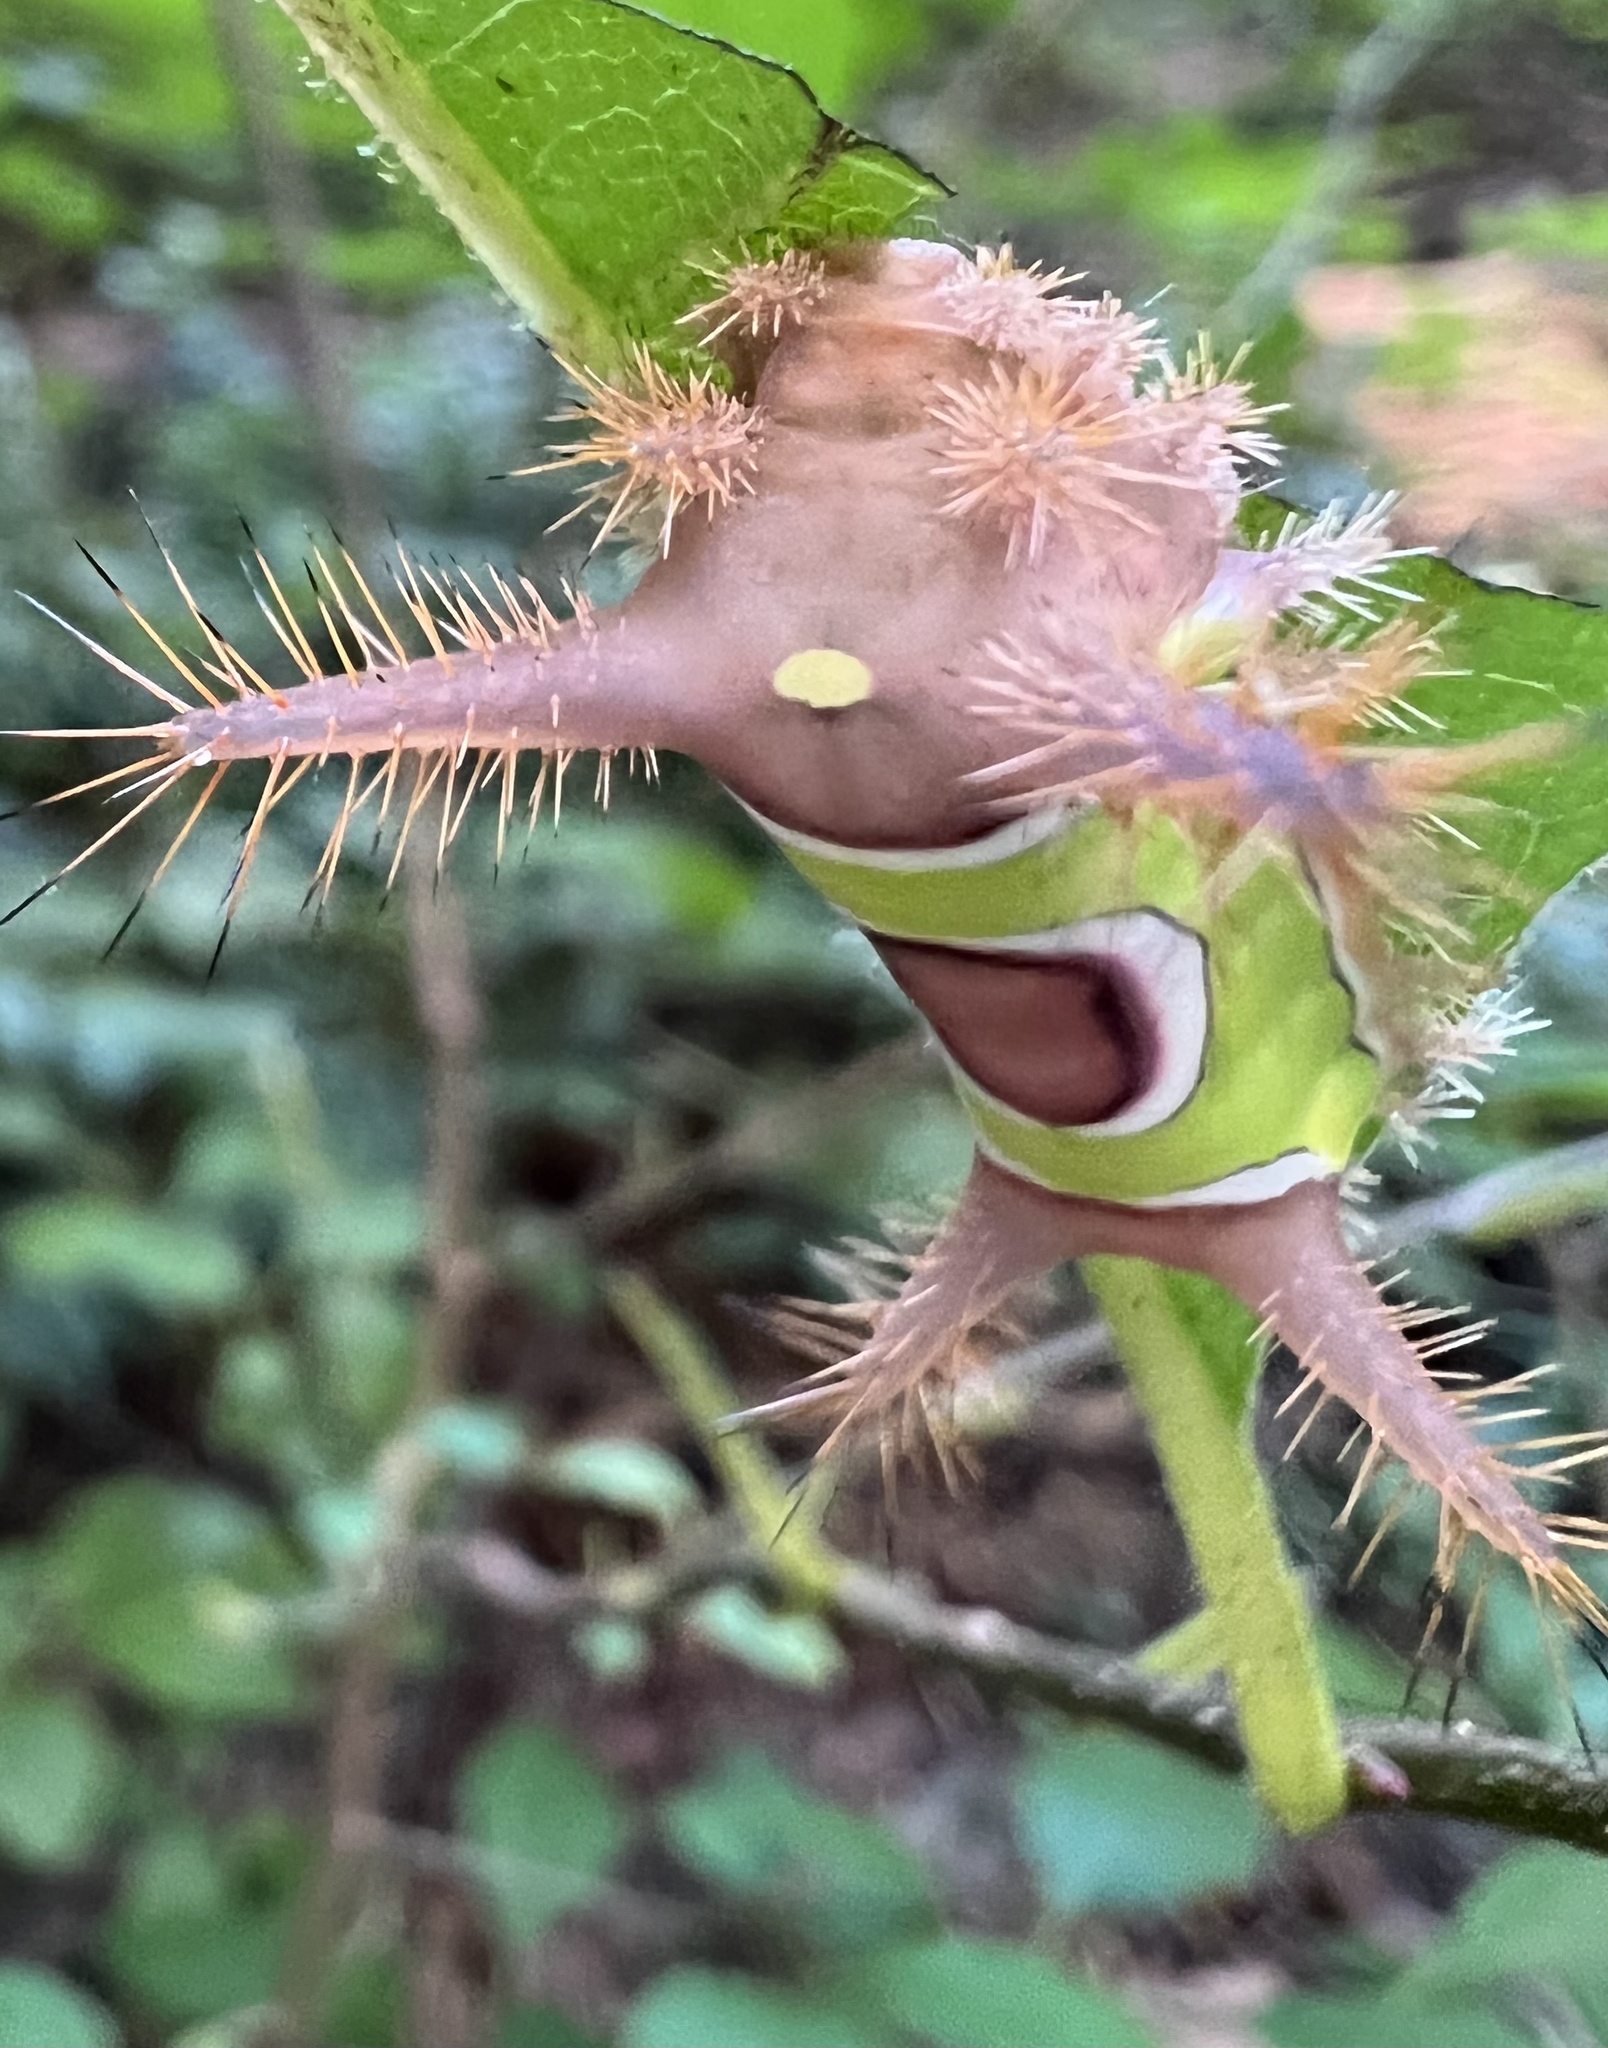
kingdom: Animalia
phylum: Arthropoda
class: Insecta
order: Lepidoptera
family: Limacodidae
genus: Acharia
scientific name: Acharia stimulea
